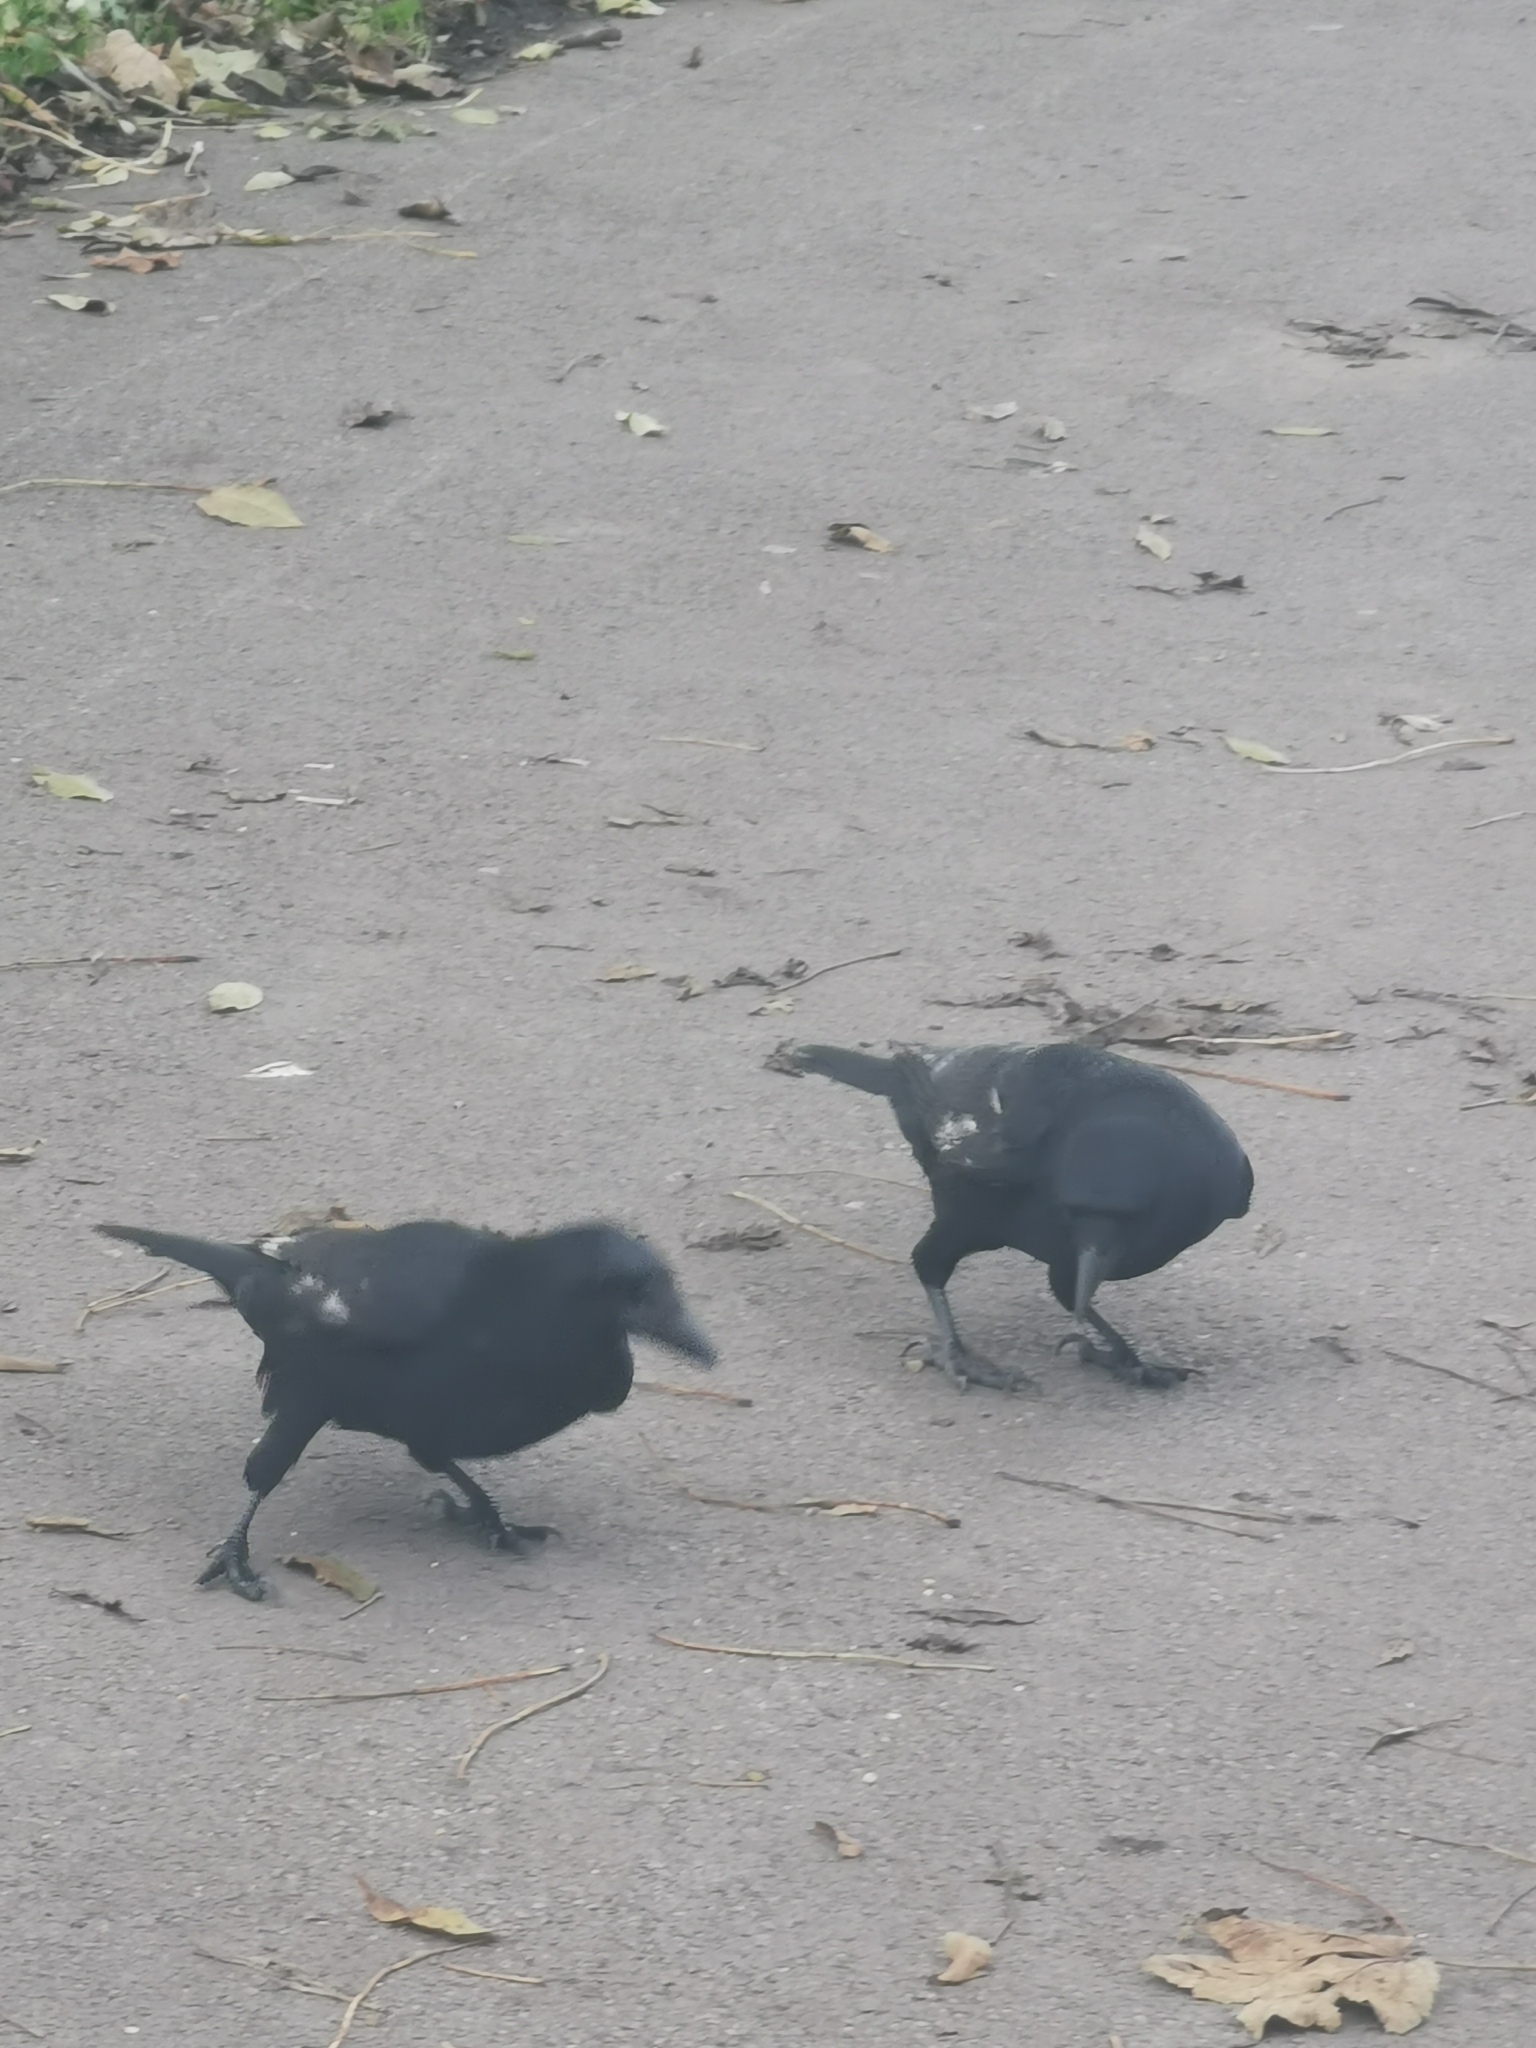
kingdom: Animalia
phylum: Chordata
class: Aves
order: Passeriformes
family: Corvidae
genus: Corvus
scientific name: Corvus corone
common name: Carrion crow
